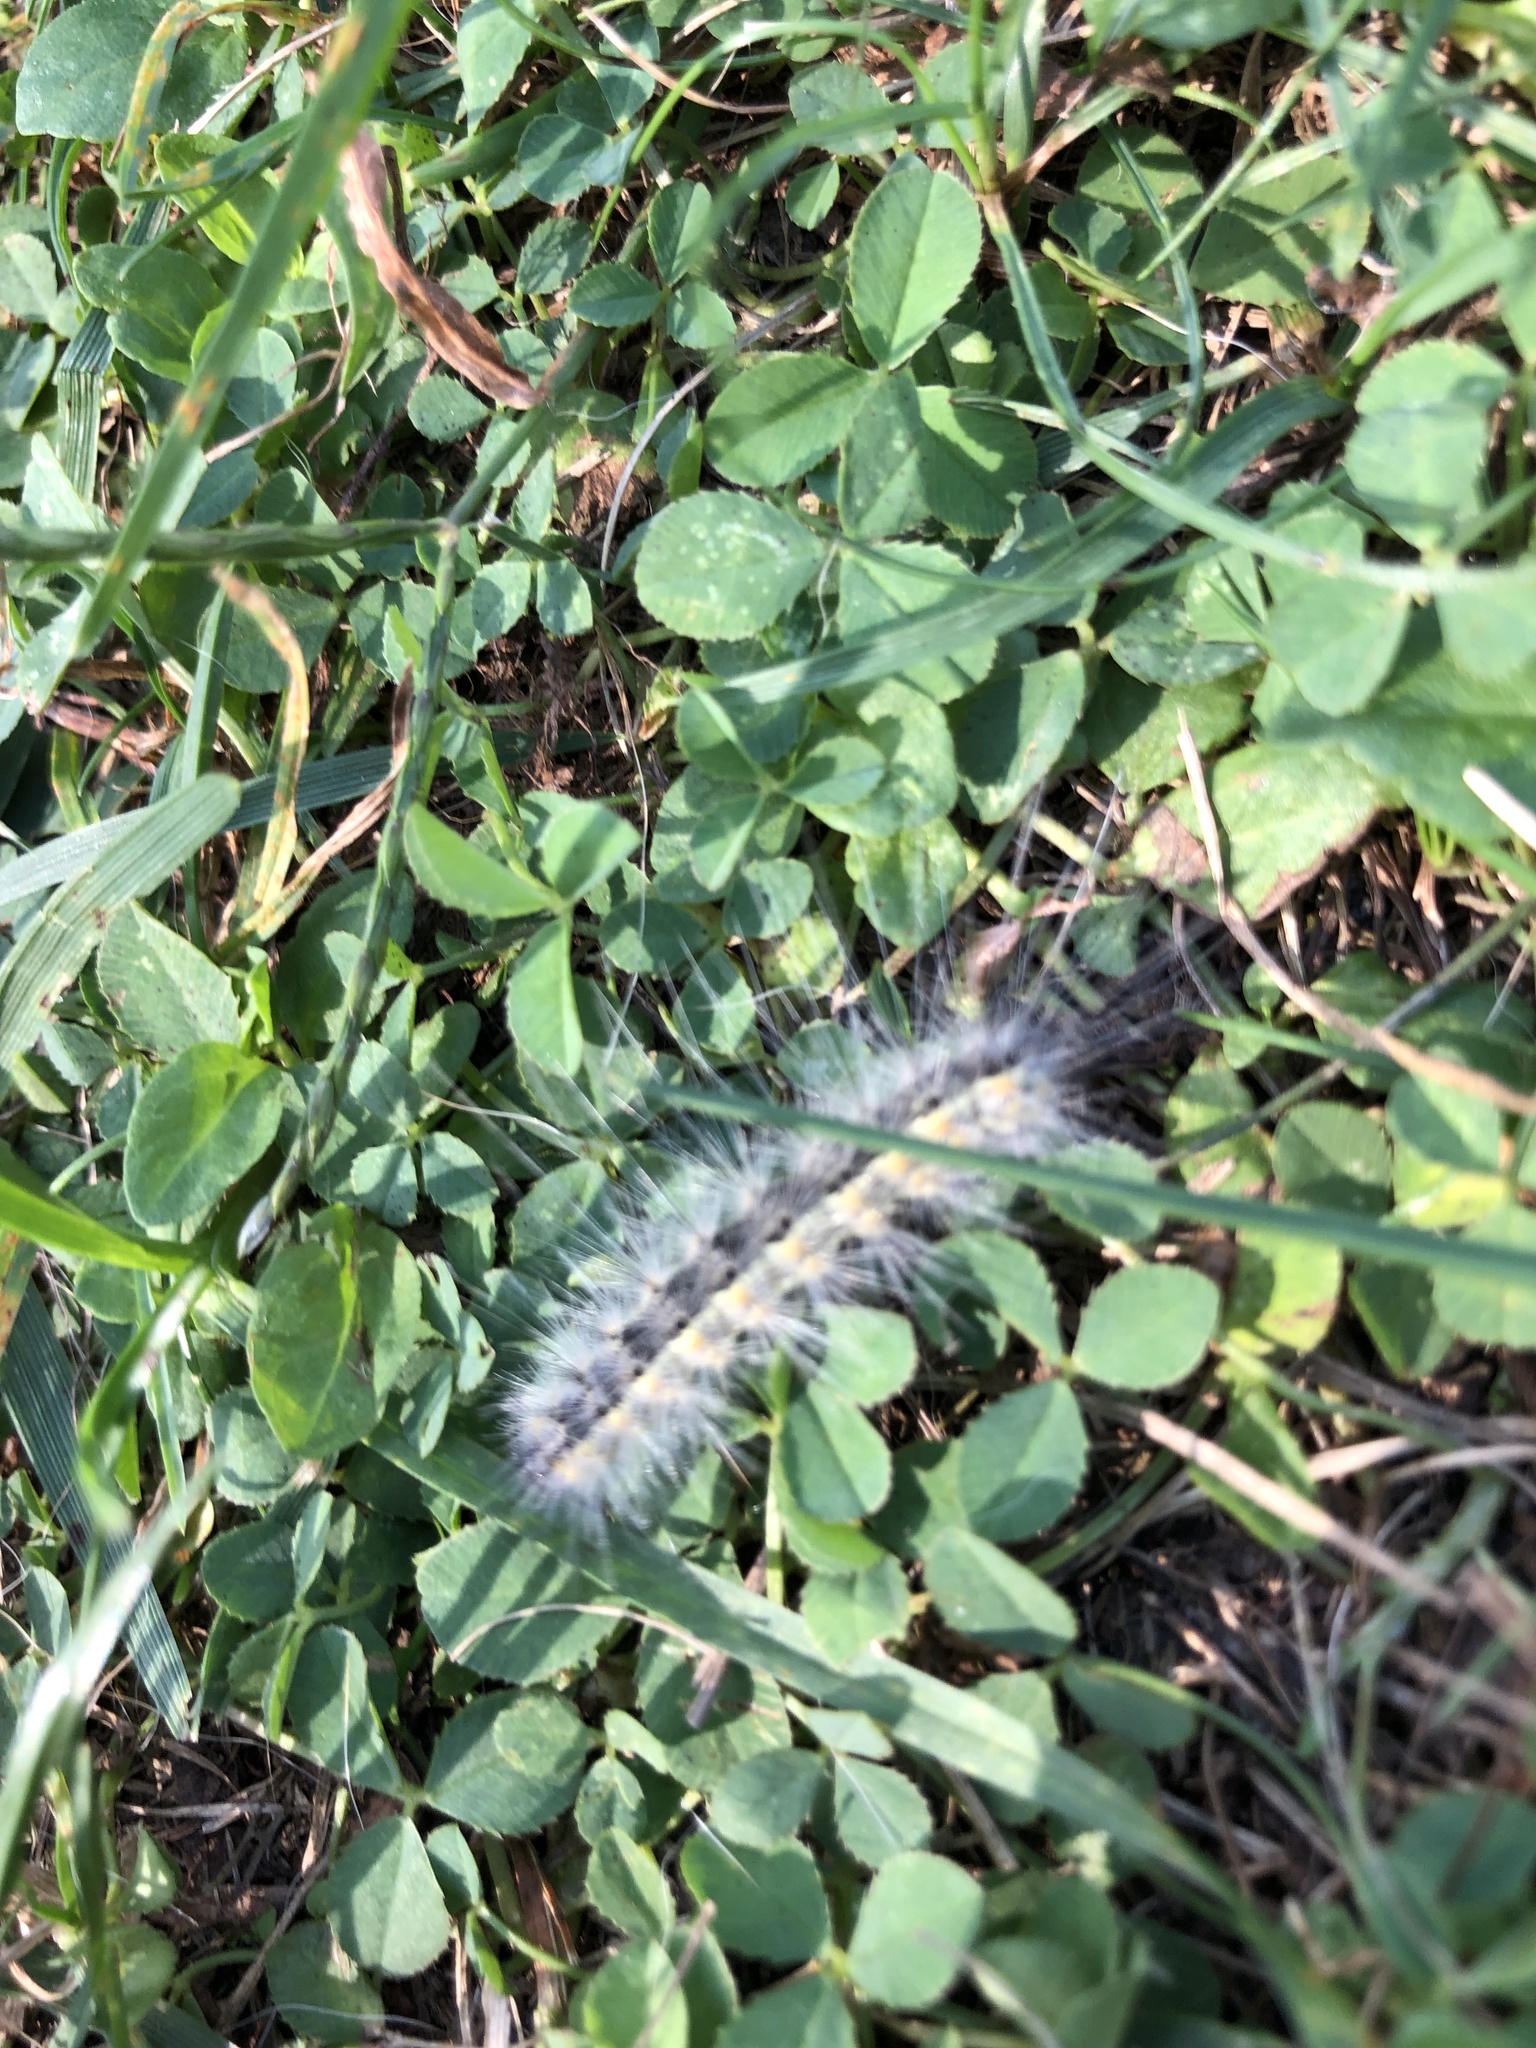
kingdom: Animalia
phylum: Arthropoda
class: Insecta
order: Lepidoptera
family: Erebidae
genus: Hyphantria
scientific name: Hyphantria cunea
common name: American white moth
